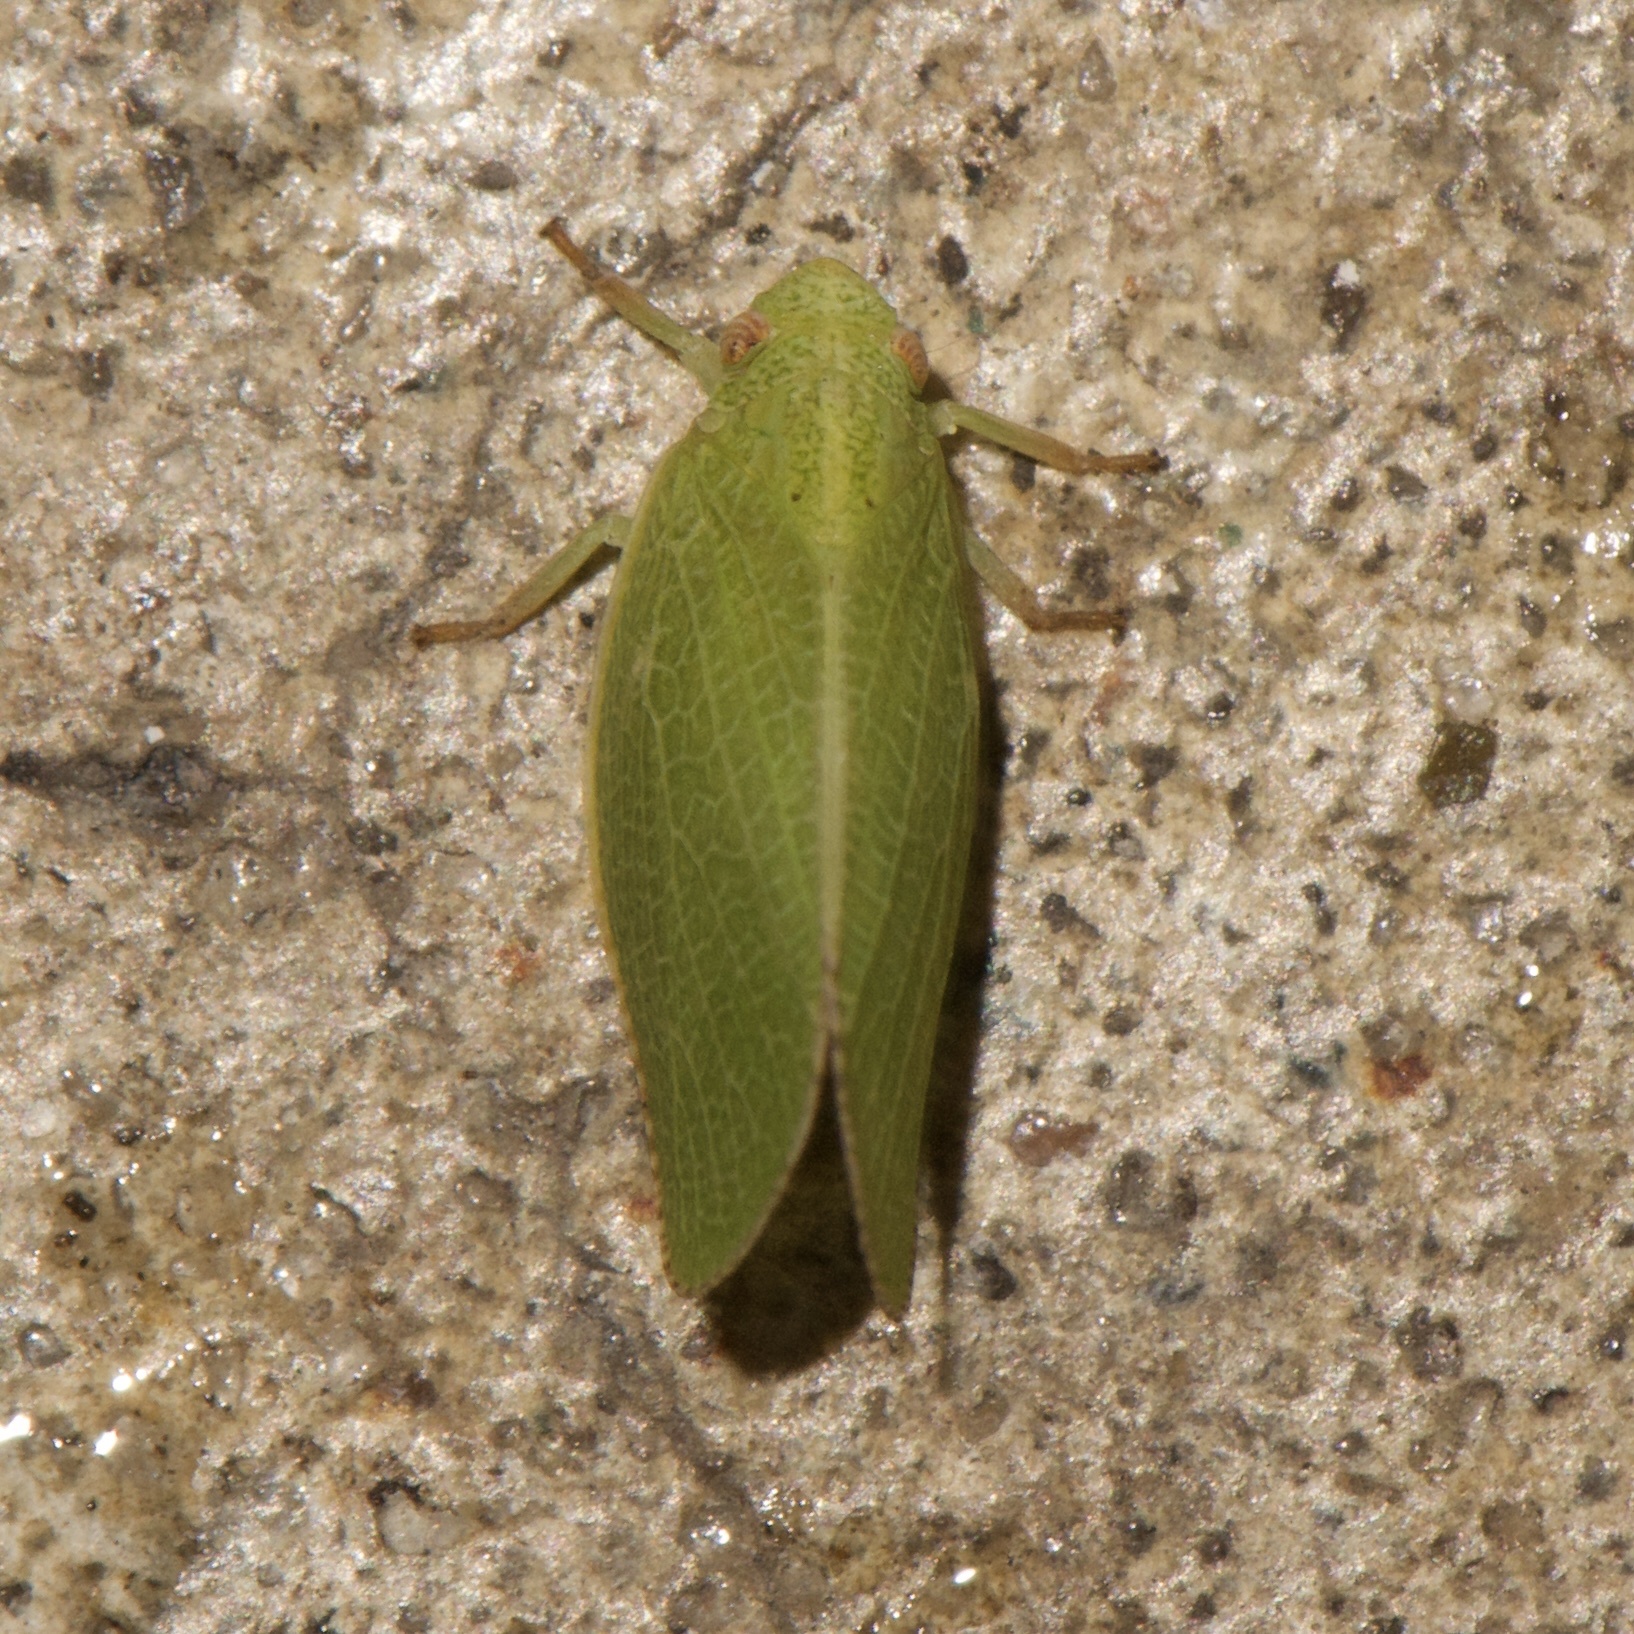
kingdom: Animalia
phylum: Arthropoda
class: Insecta
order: Hemiptera
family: Acanaloniidae
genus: Acanalonia
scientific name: Acanalonia conica
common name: Green cone-headed planthopper
